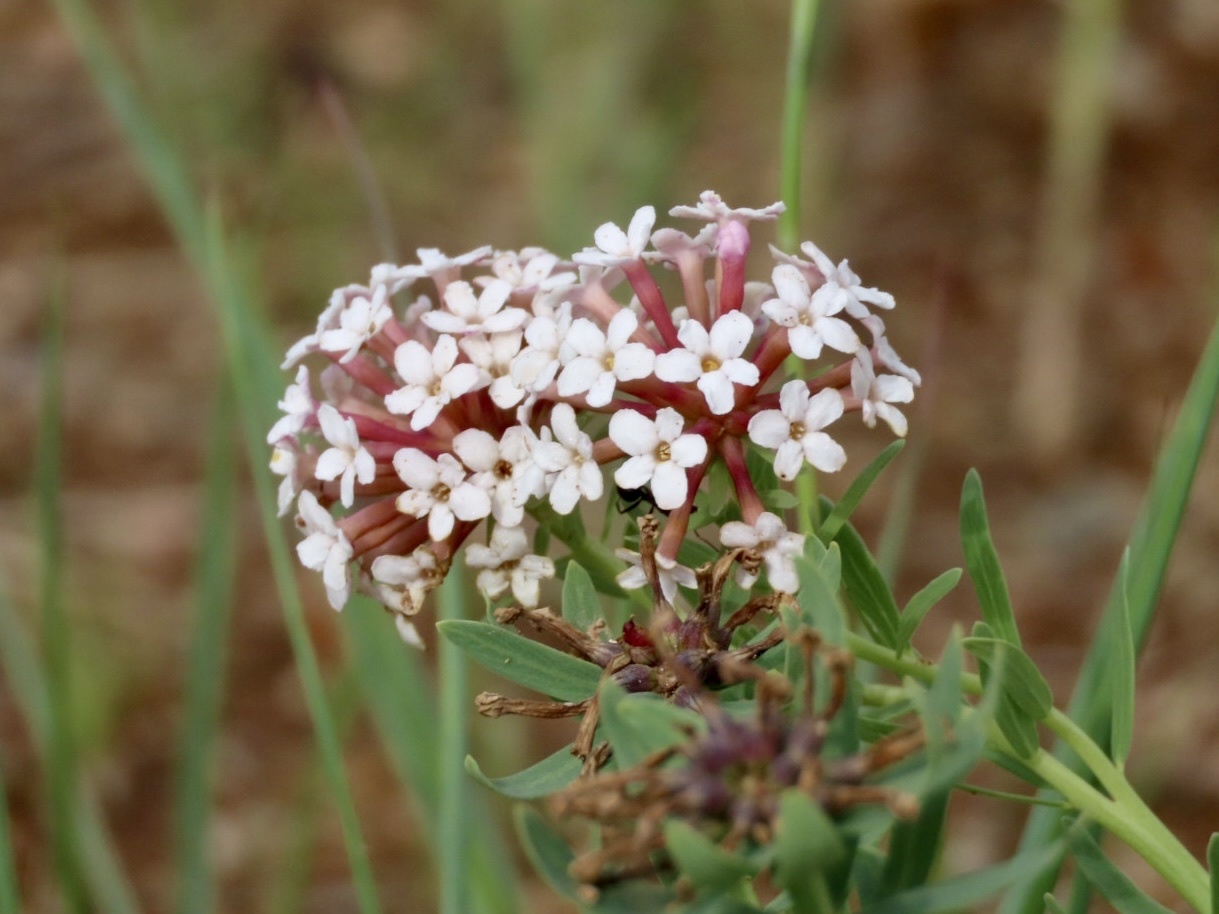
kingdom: Plantae
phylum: Tracheophyta
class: Magnoliopsida
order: Malvales
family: Thymelaeaceae
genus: Stellera
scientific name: Stellera chamaejasme
